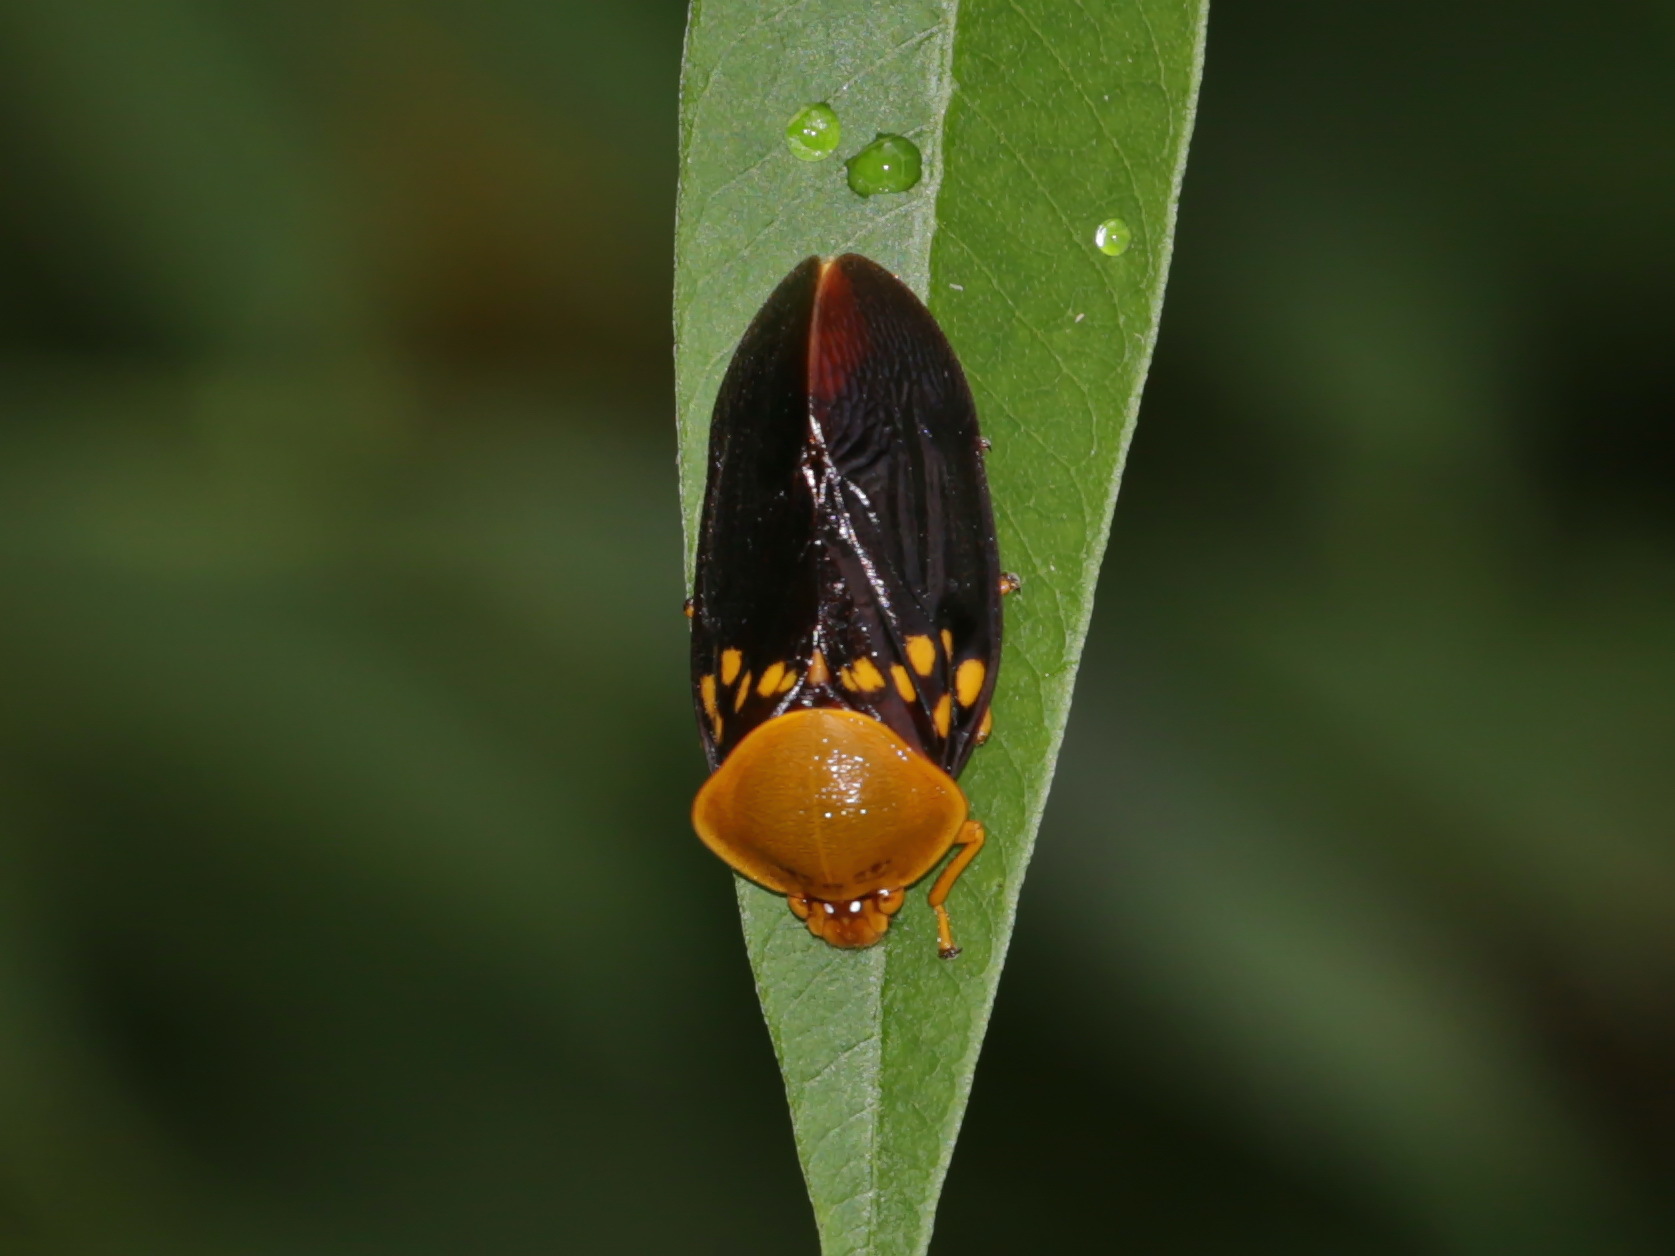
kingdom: Animalia
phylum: Arthropoda
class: Insecta
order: Hemiptera
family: Cercopidae
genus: Suracarta
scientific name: Suracarta tricolor
